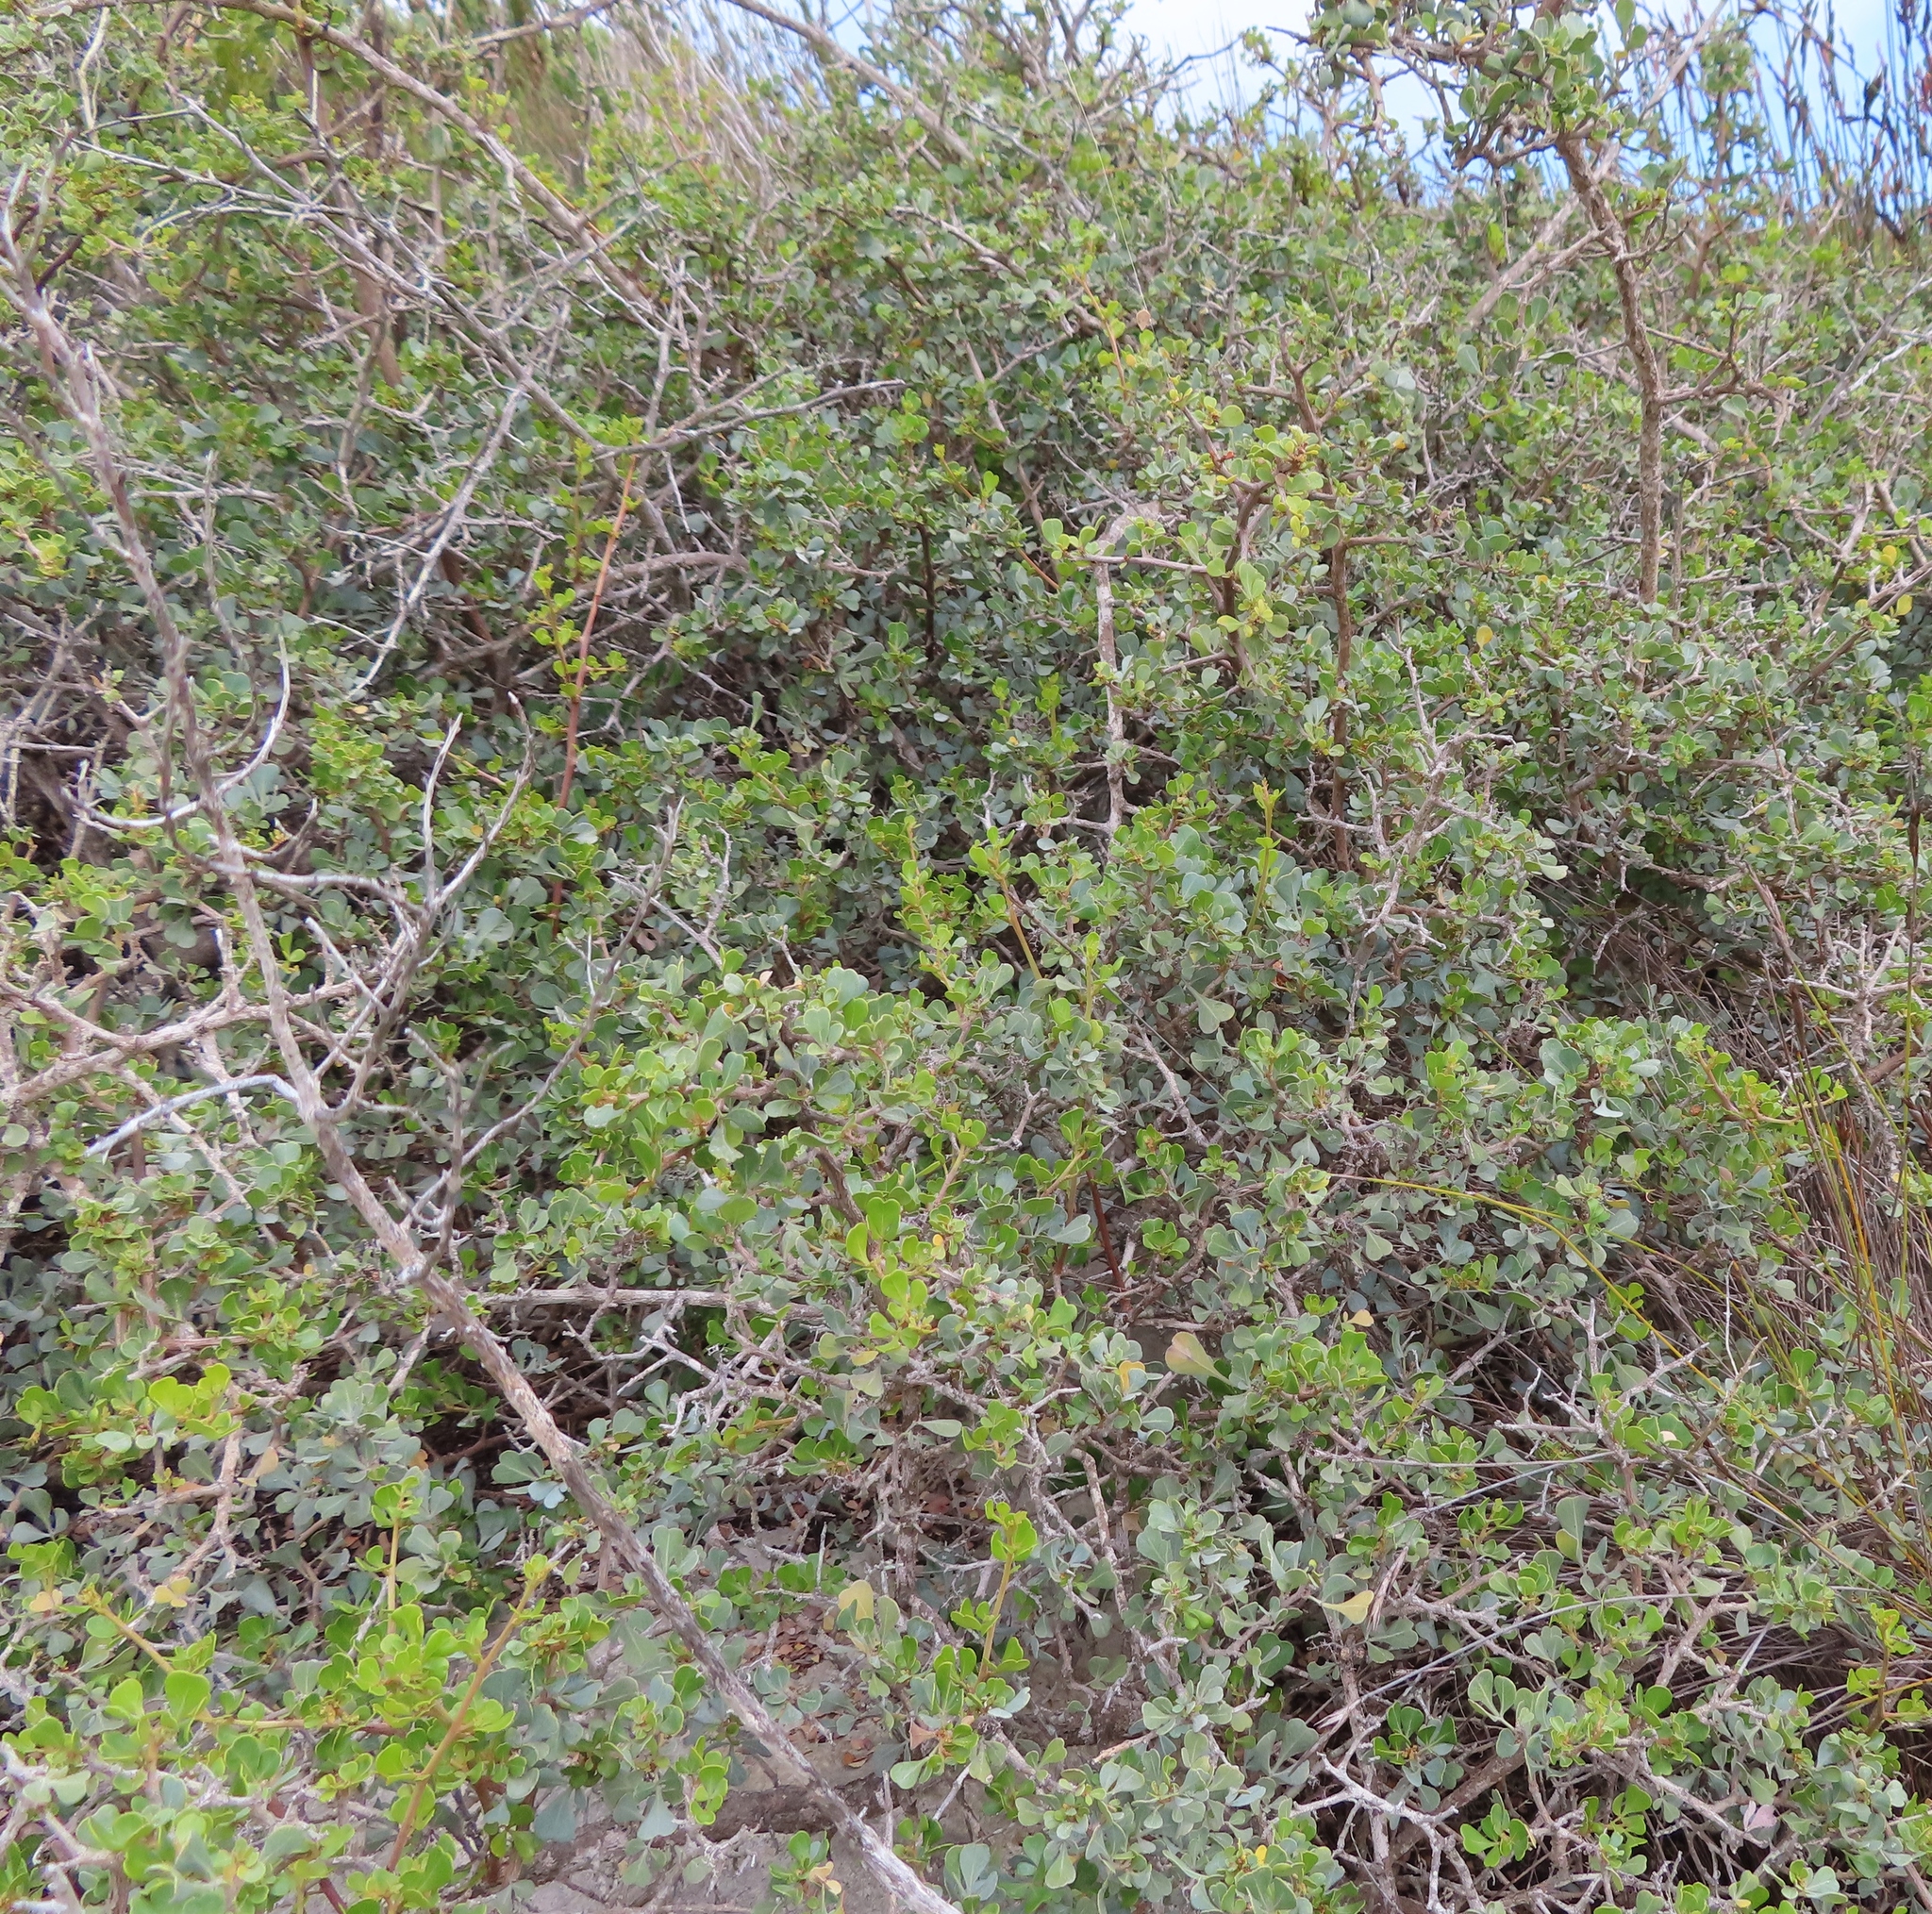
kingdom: Plantae
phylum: Tracheophyta
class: Magnoliopsida
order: Sapindales
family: Anacardiaceae
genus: Searsia
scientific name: Searsia glauca
